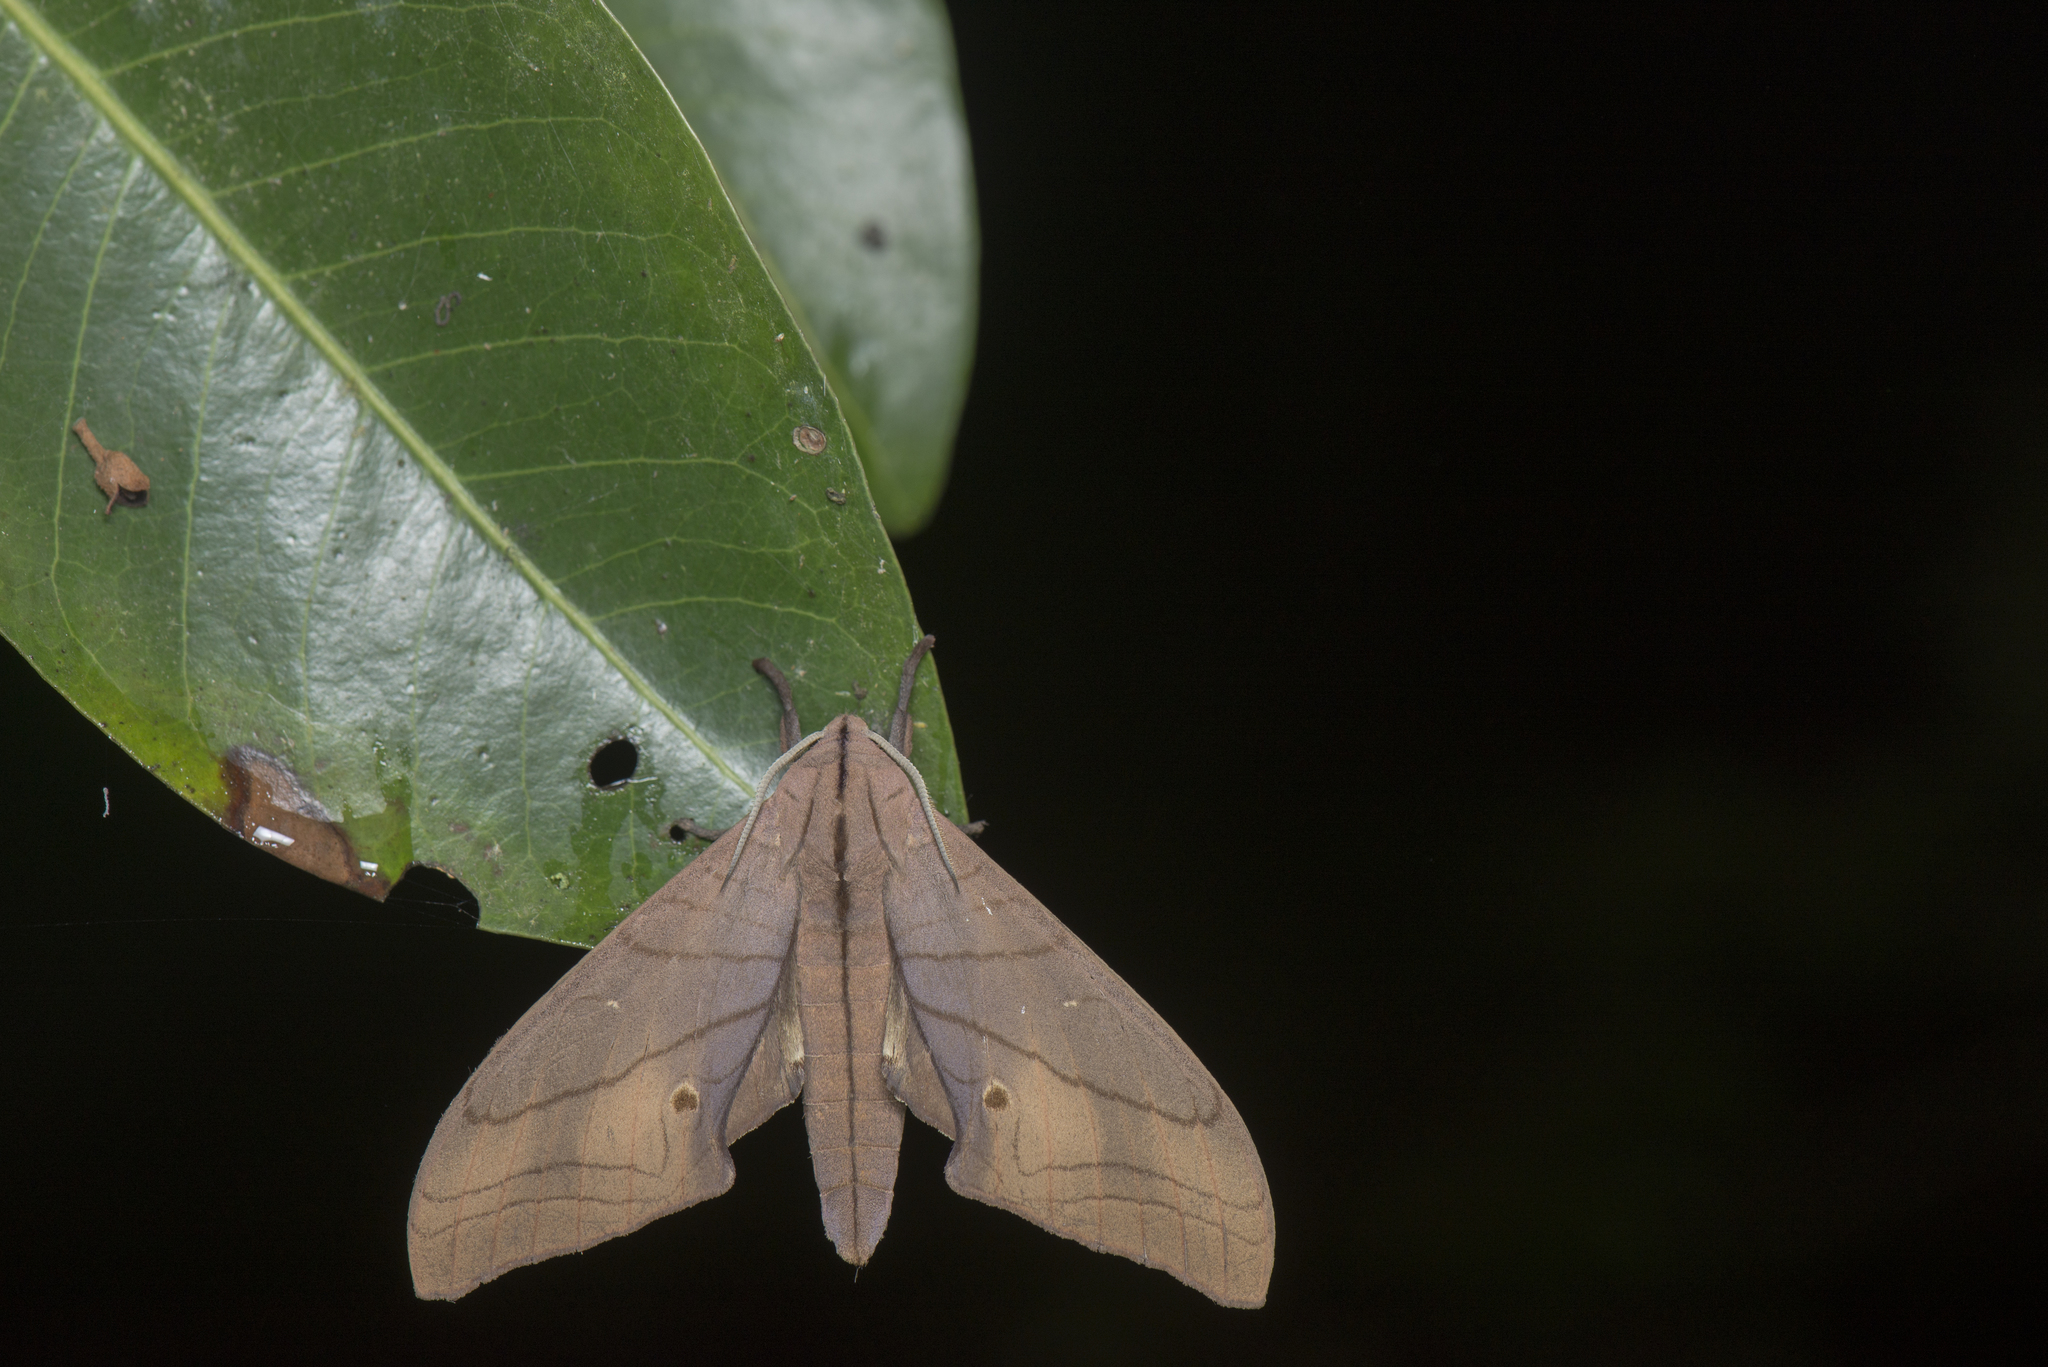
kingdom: Animalia
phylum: Arthropoda
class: Insecta
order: Lepidoptera
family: Sphingidae
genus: Marumba
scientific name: Marumba cristata
